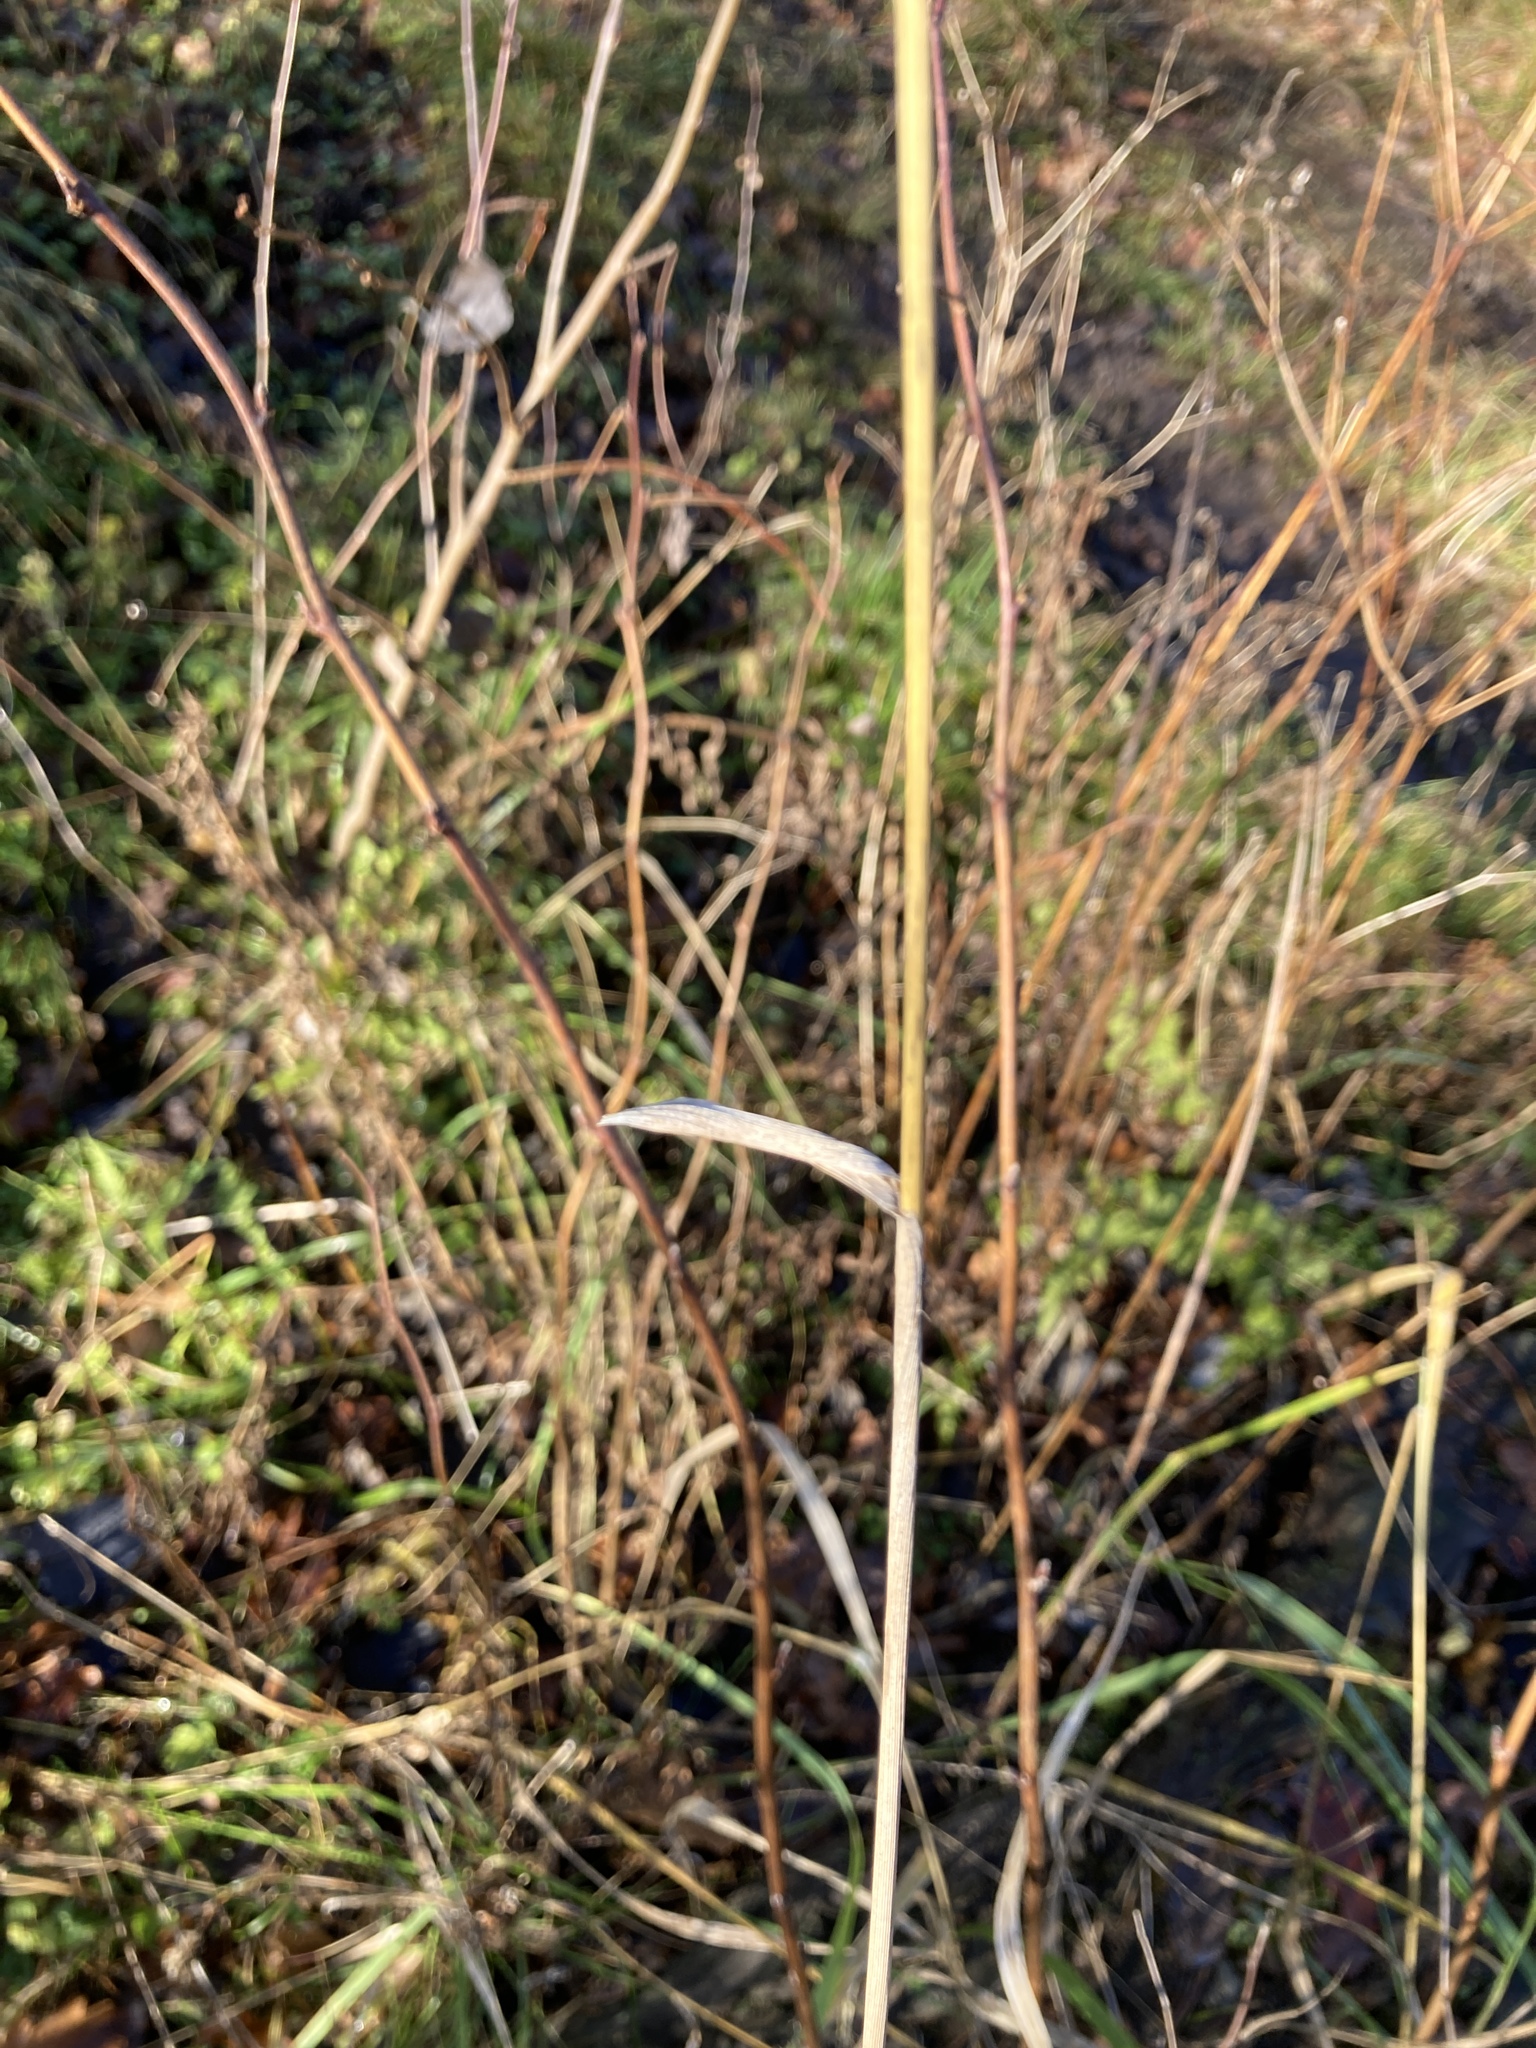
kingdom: Plantae
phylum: Tracheophyta
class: Liliopsida
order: Poales
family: Poaceae
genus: Calamagrostis
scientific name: Calamagrostis epigejos
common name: Wood small-reed
